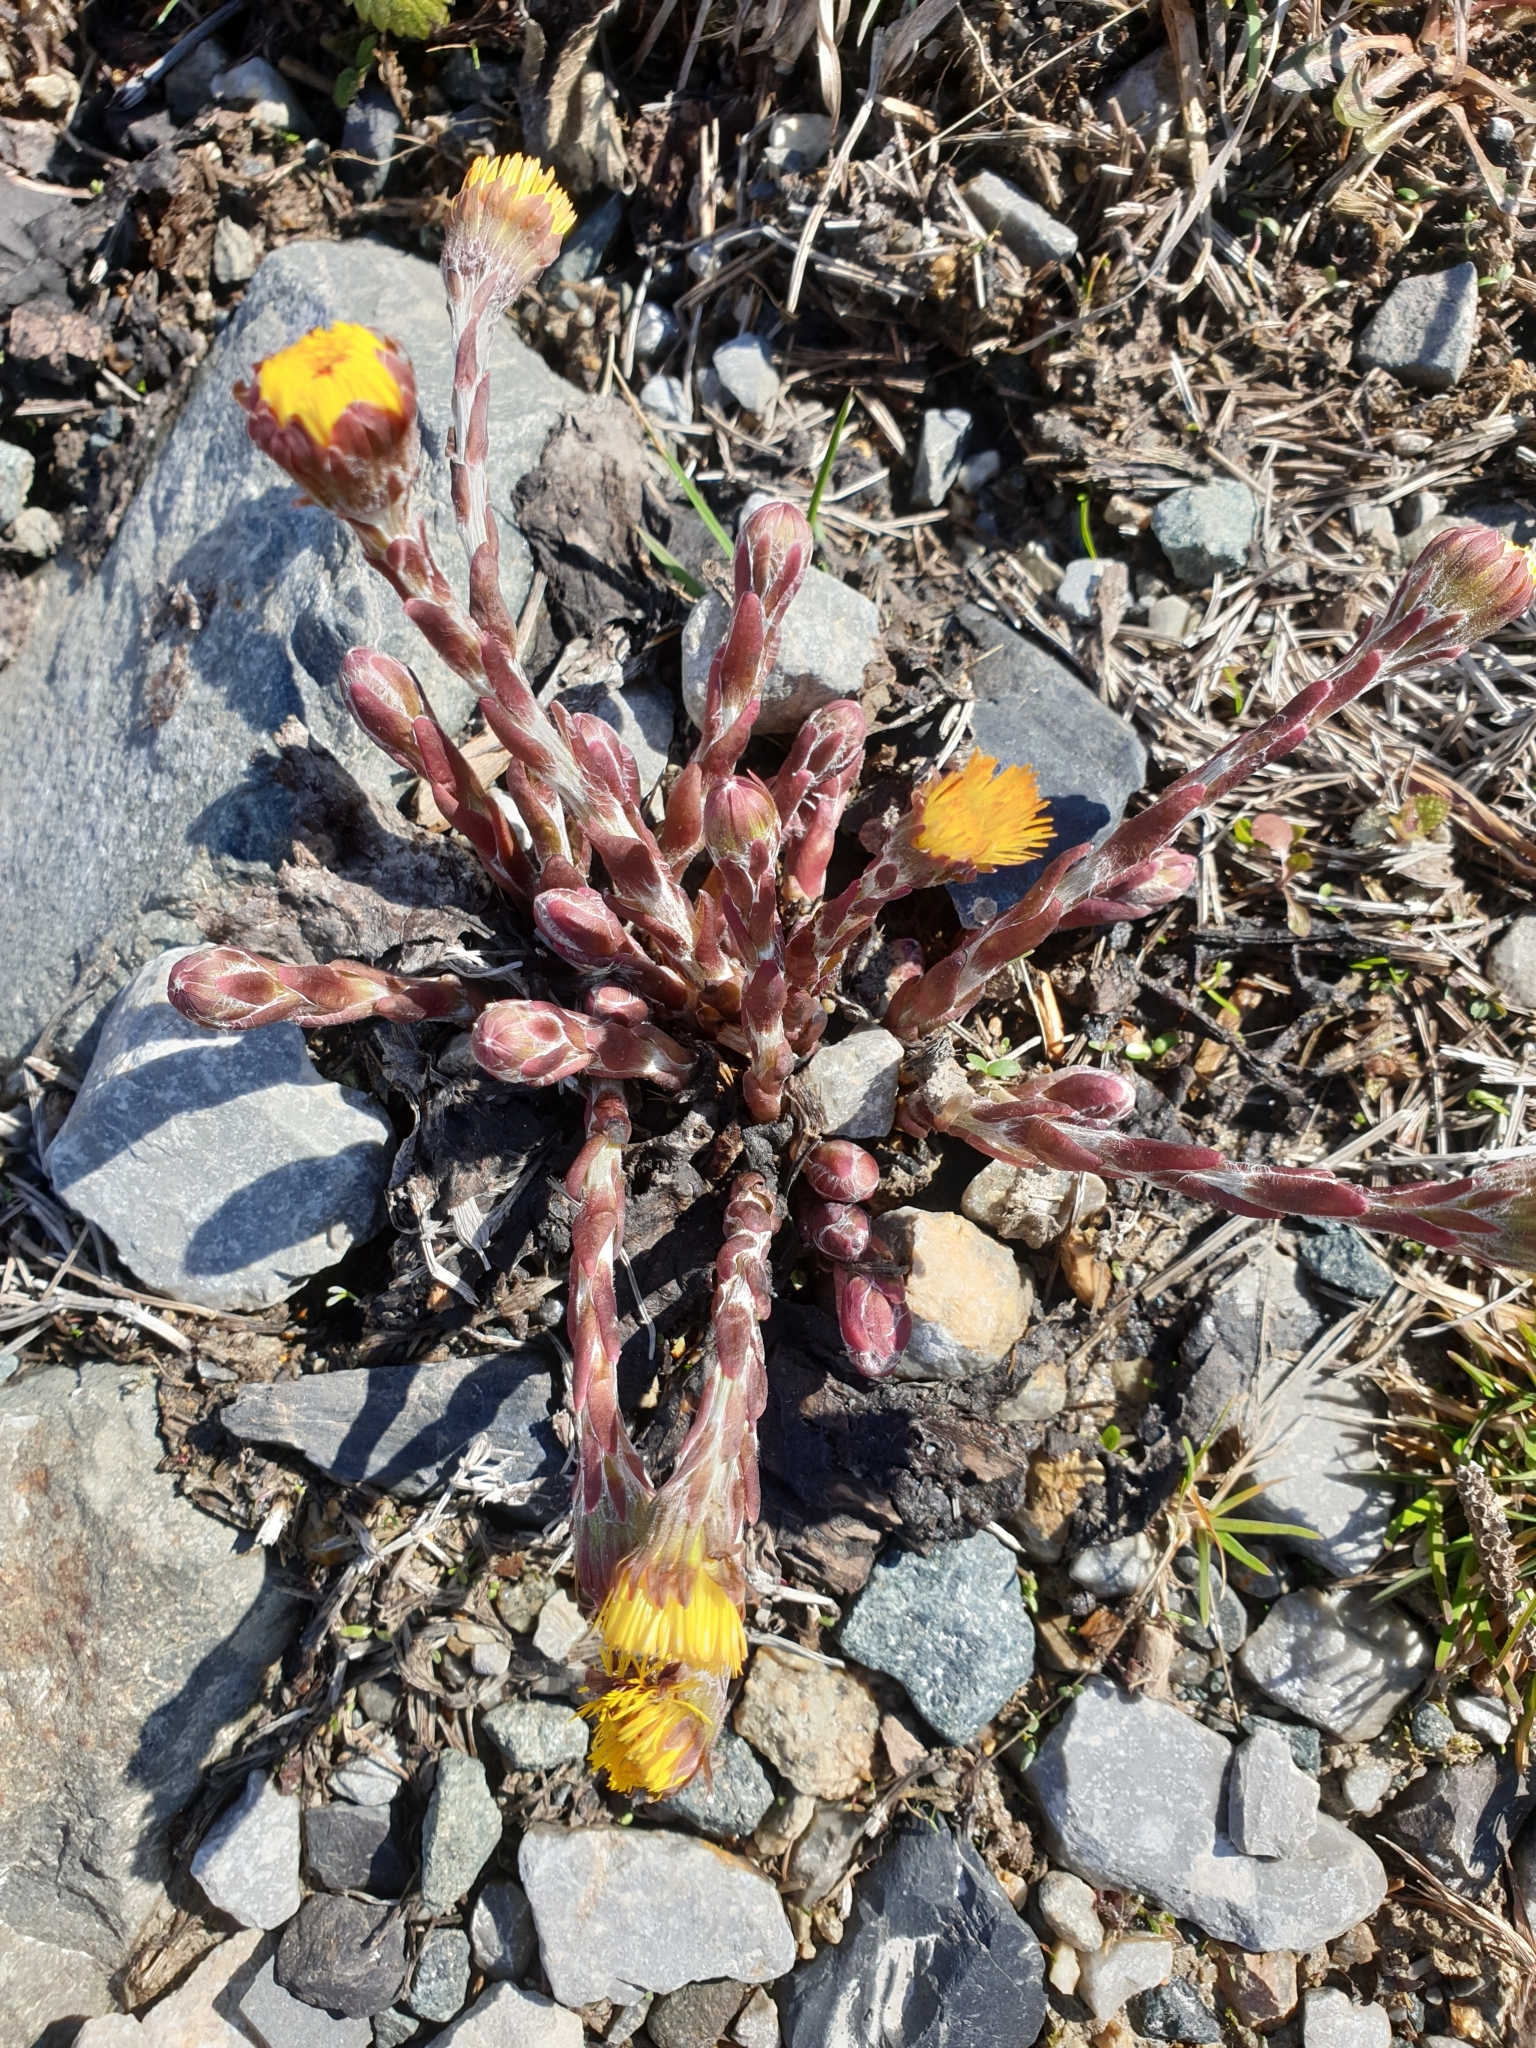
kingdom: Plantae
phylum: Tracheophyta
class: Magnoliopsida
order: Asterales
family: Asteraceae
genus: Tussilago
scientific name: Tussilago farfara
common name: Coltsfoot
